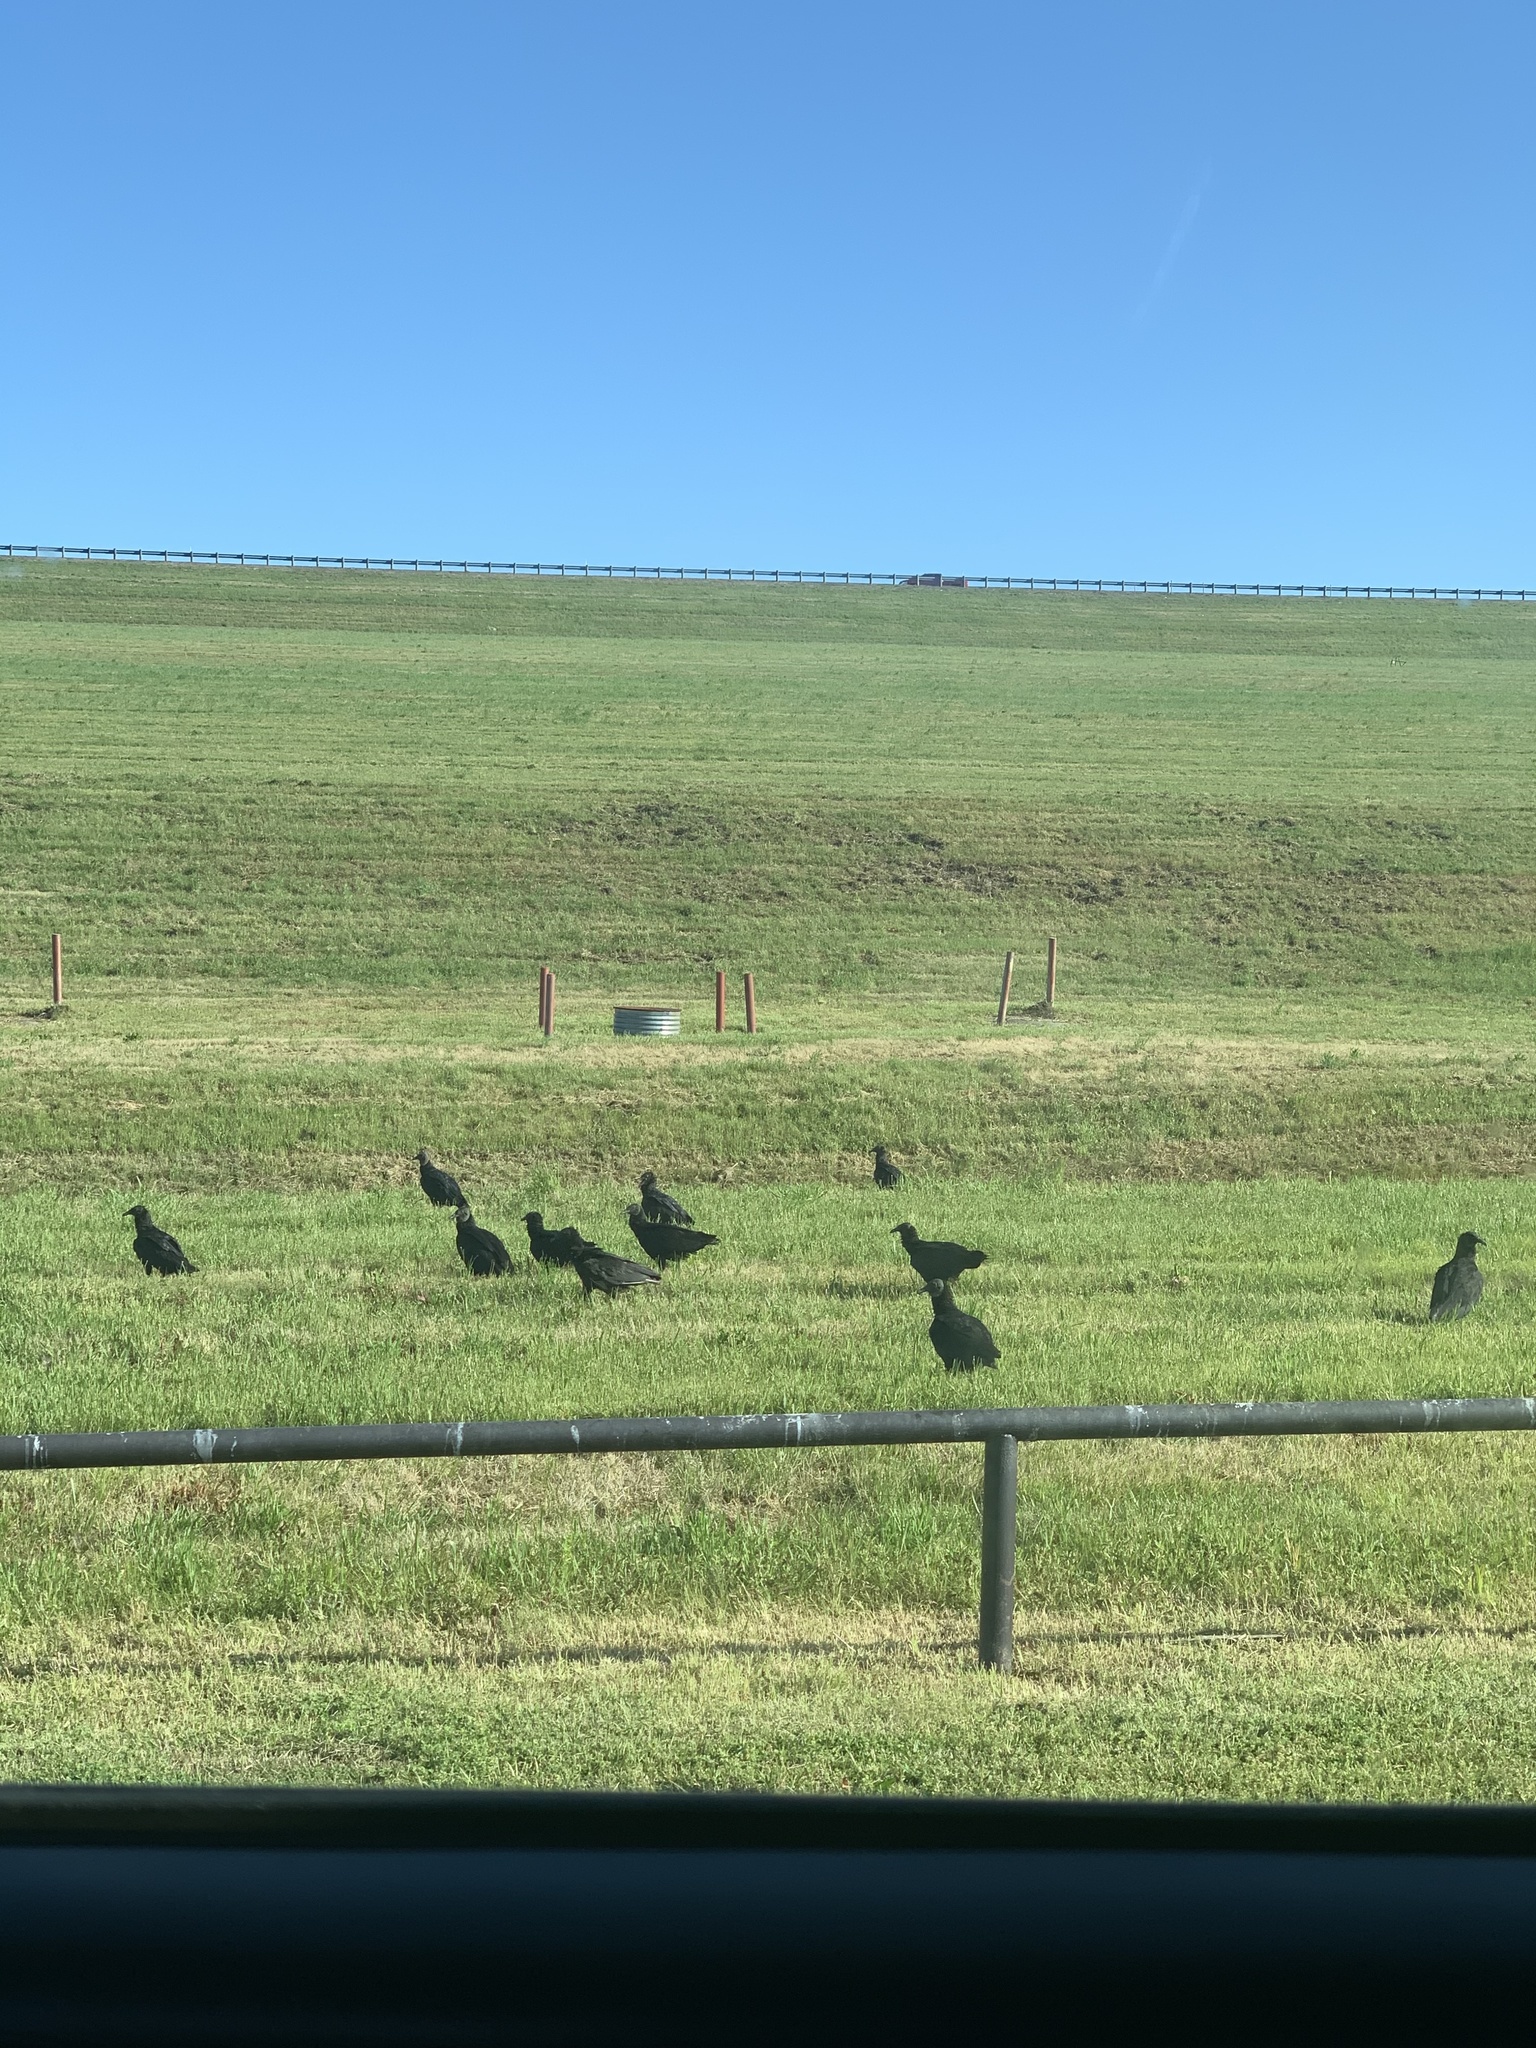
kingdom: Animalia
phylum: Chordata
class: Aves
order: Accipitriformes
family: Cathartidae
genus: Coragyps
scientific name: Coragyps atratus
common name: Black vulture
